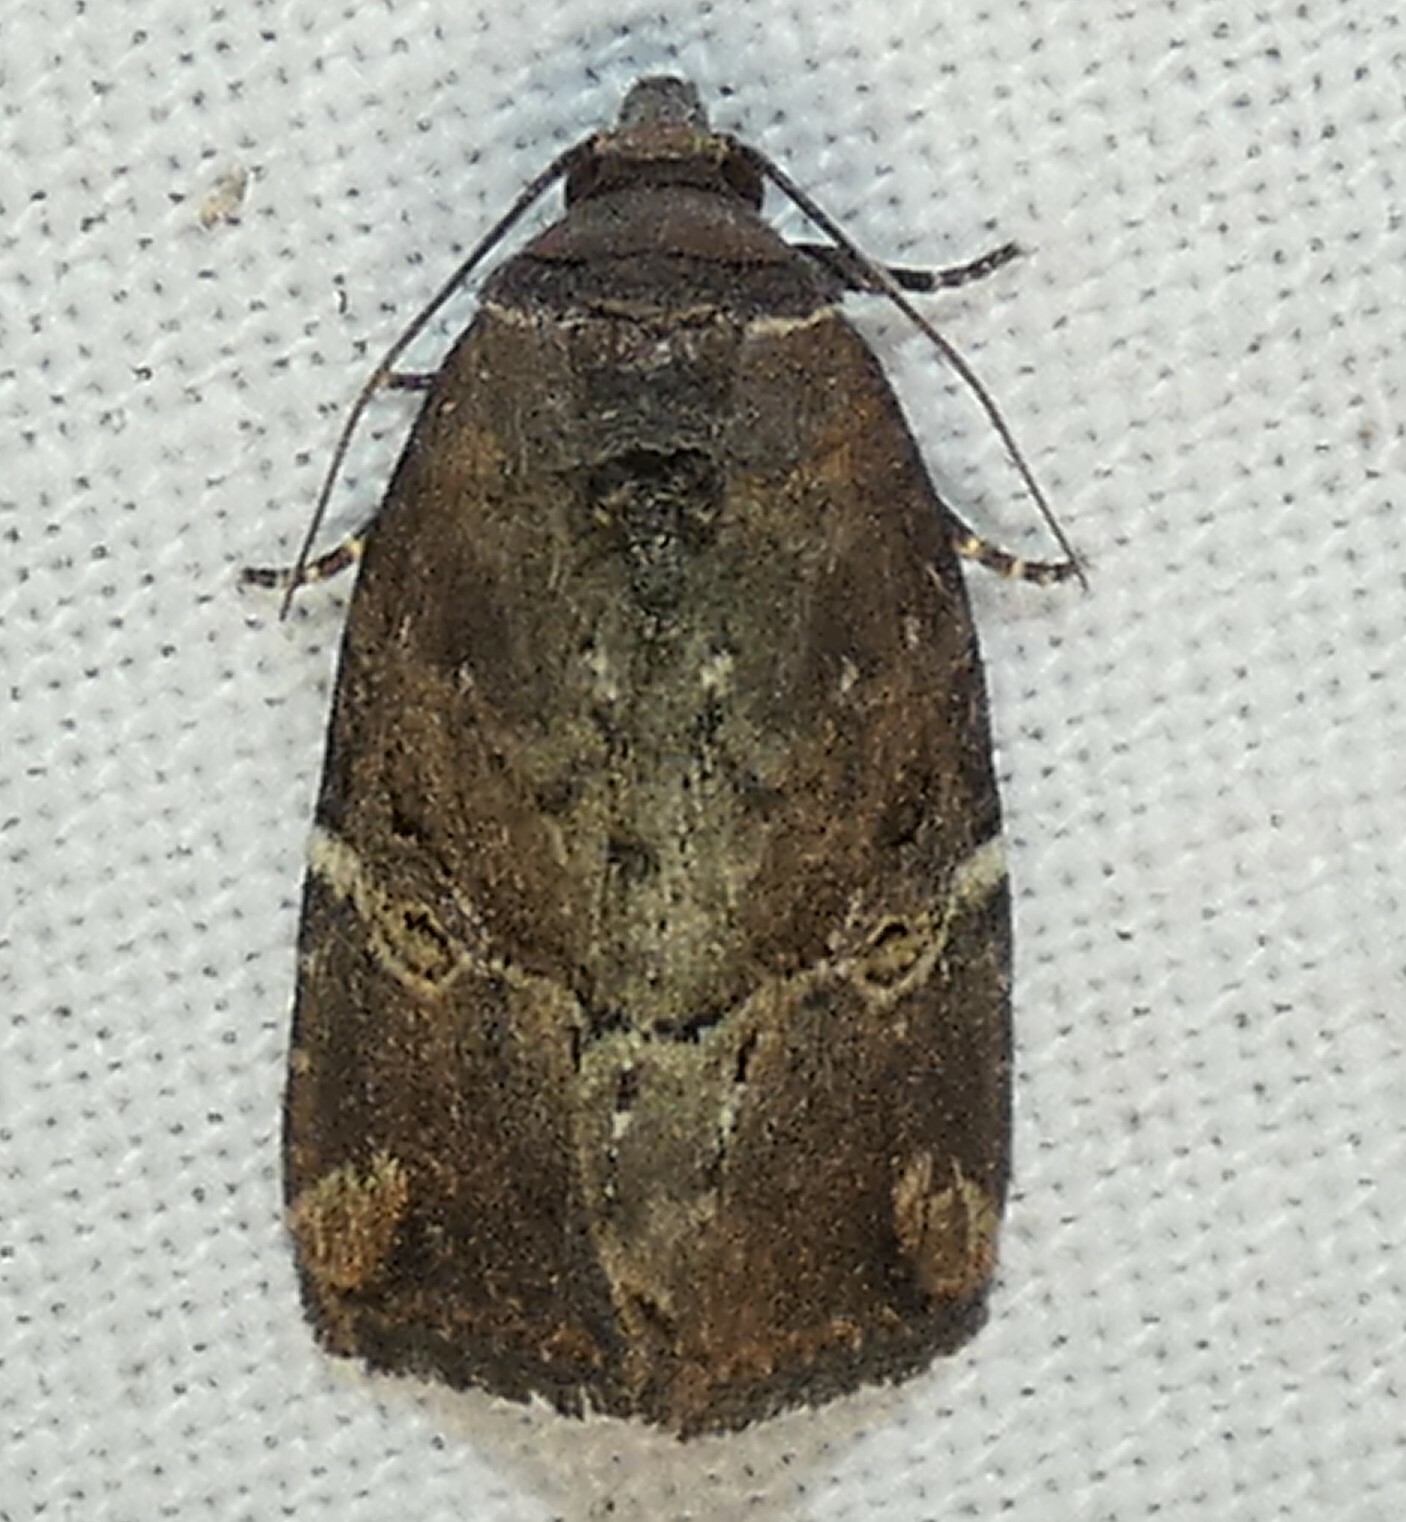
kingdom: Animalia
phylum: Arthropoda
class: Insecta
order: Lepidoptera
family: Noctuidae
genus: Elaphria
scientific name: Elaphria versicolor
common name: Fir harlequin
